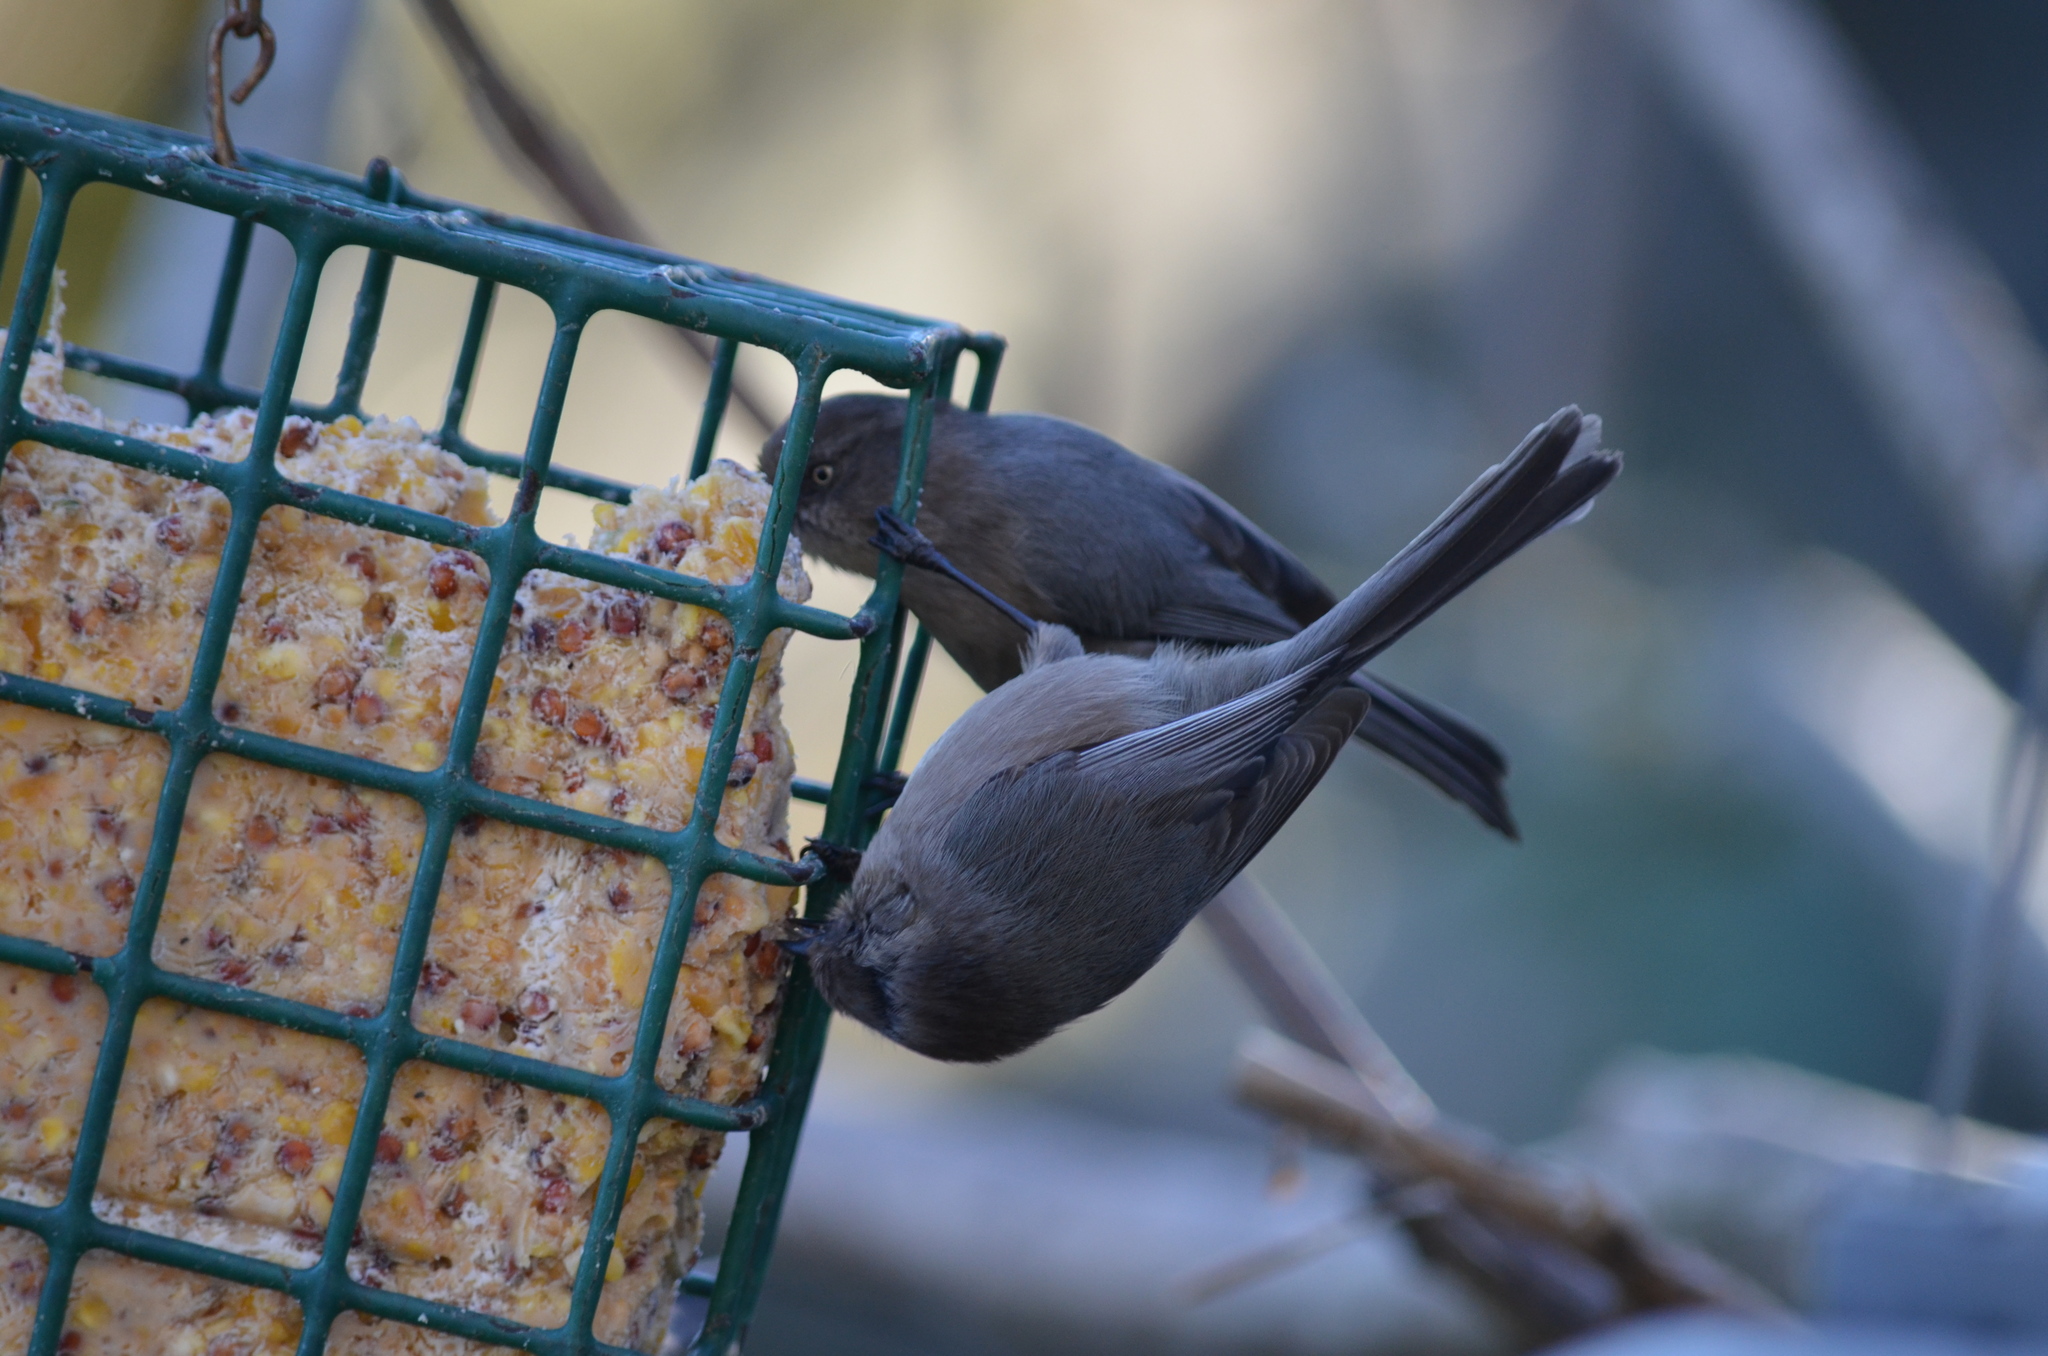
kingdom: Animalia
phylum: Chordata
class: Aves
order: Passeriformes
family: Aegithalidae
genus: Psaltriparus
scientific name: Psaltriparus minimus
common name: American bushtit
